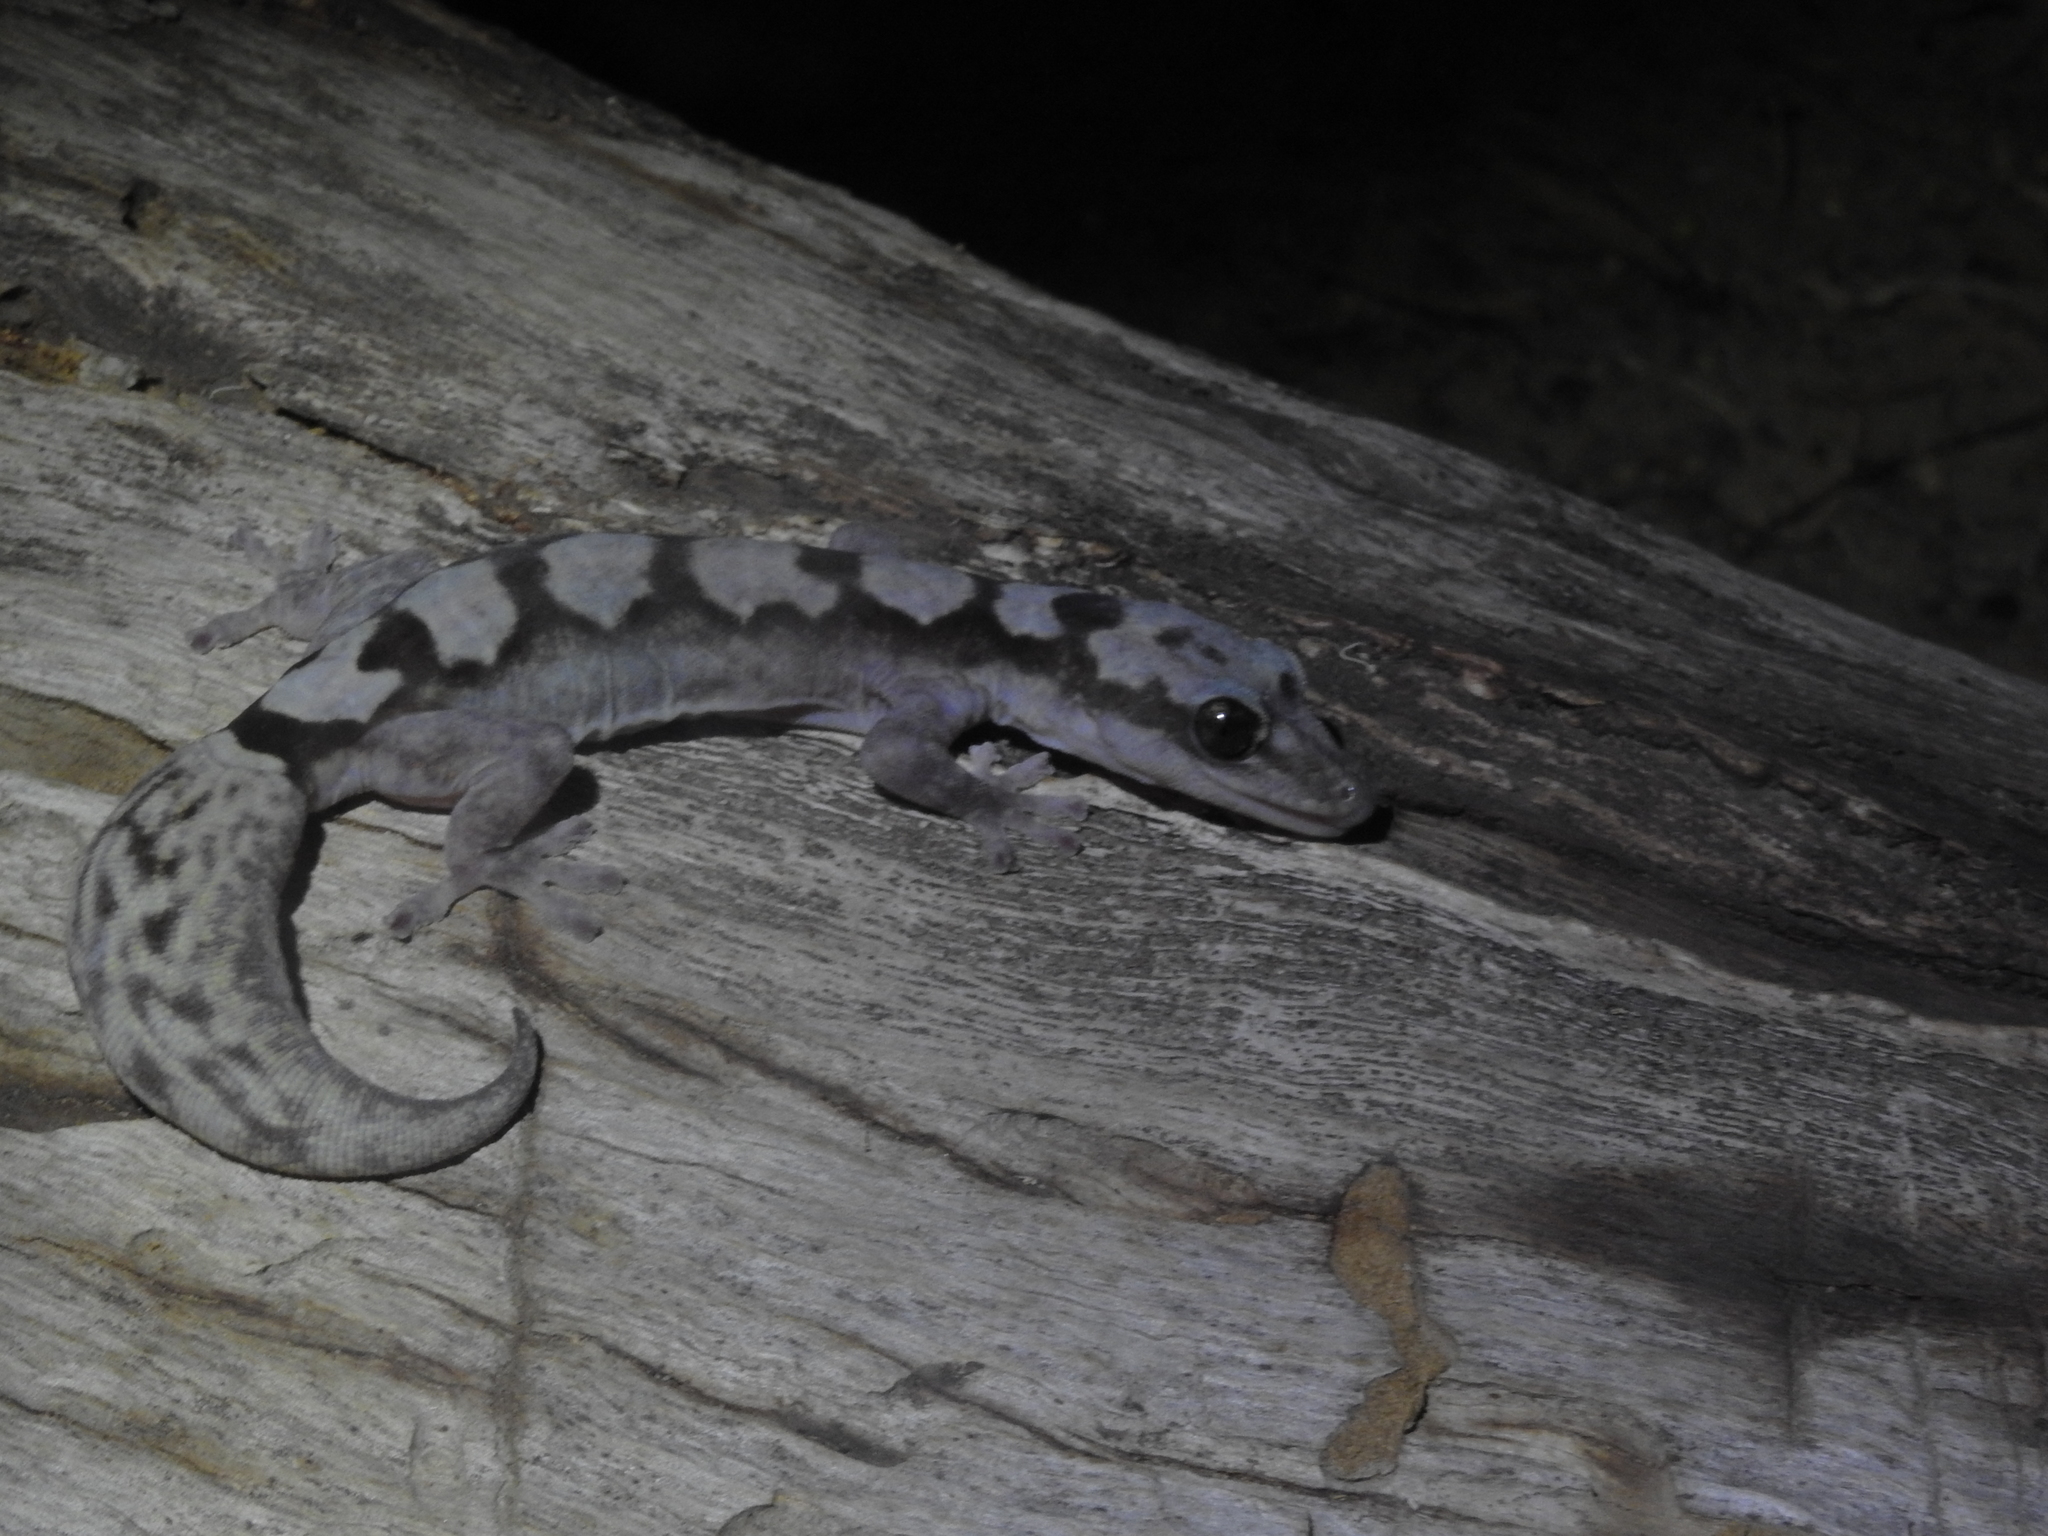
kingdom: Animalia
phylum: Chordata
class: Squamata
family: Diplodactylidae
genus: Nebulifera
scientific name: Nebulifera robusta
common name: Robust gecko
